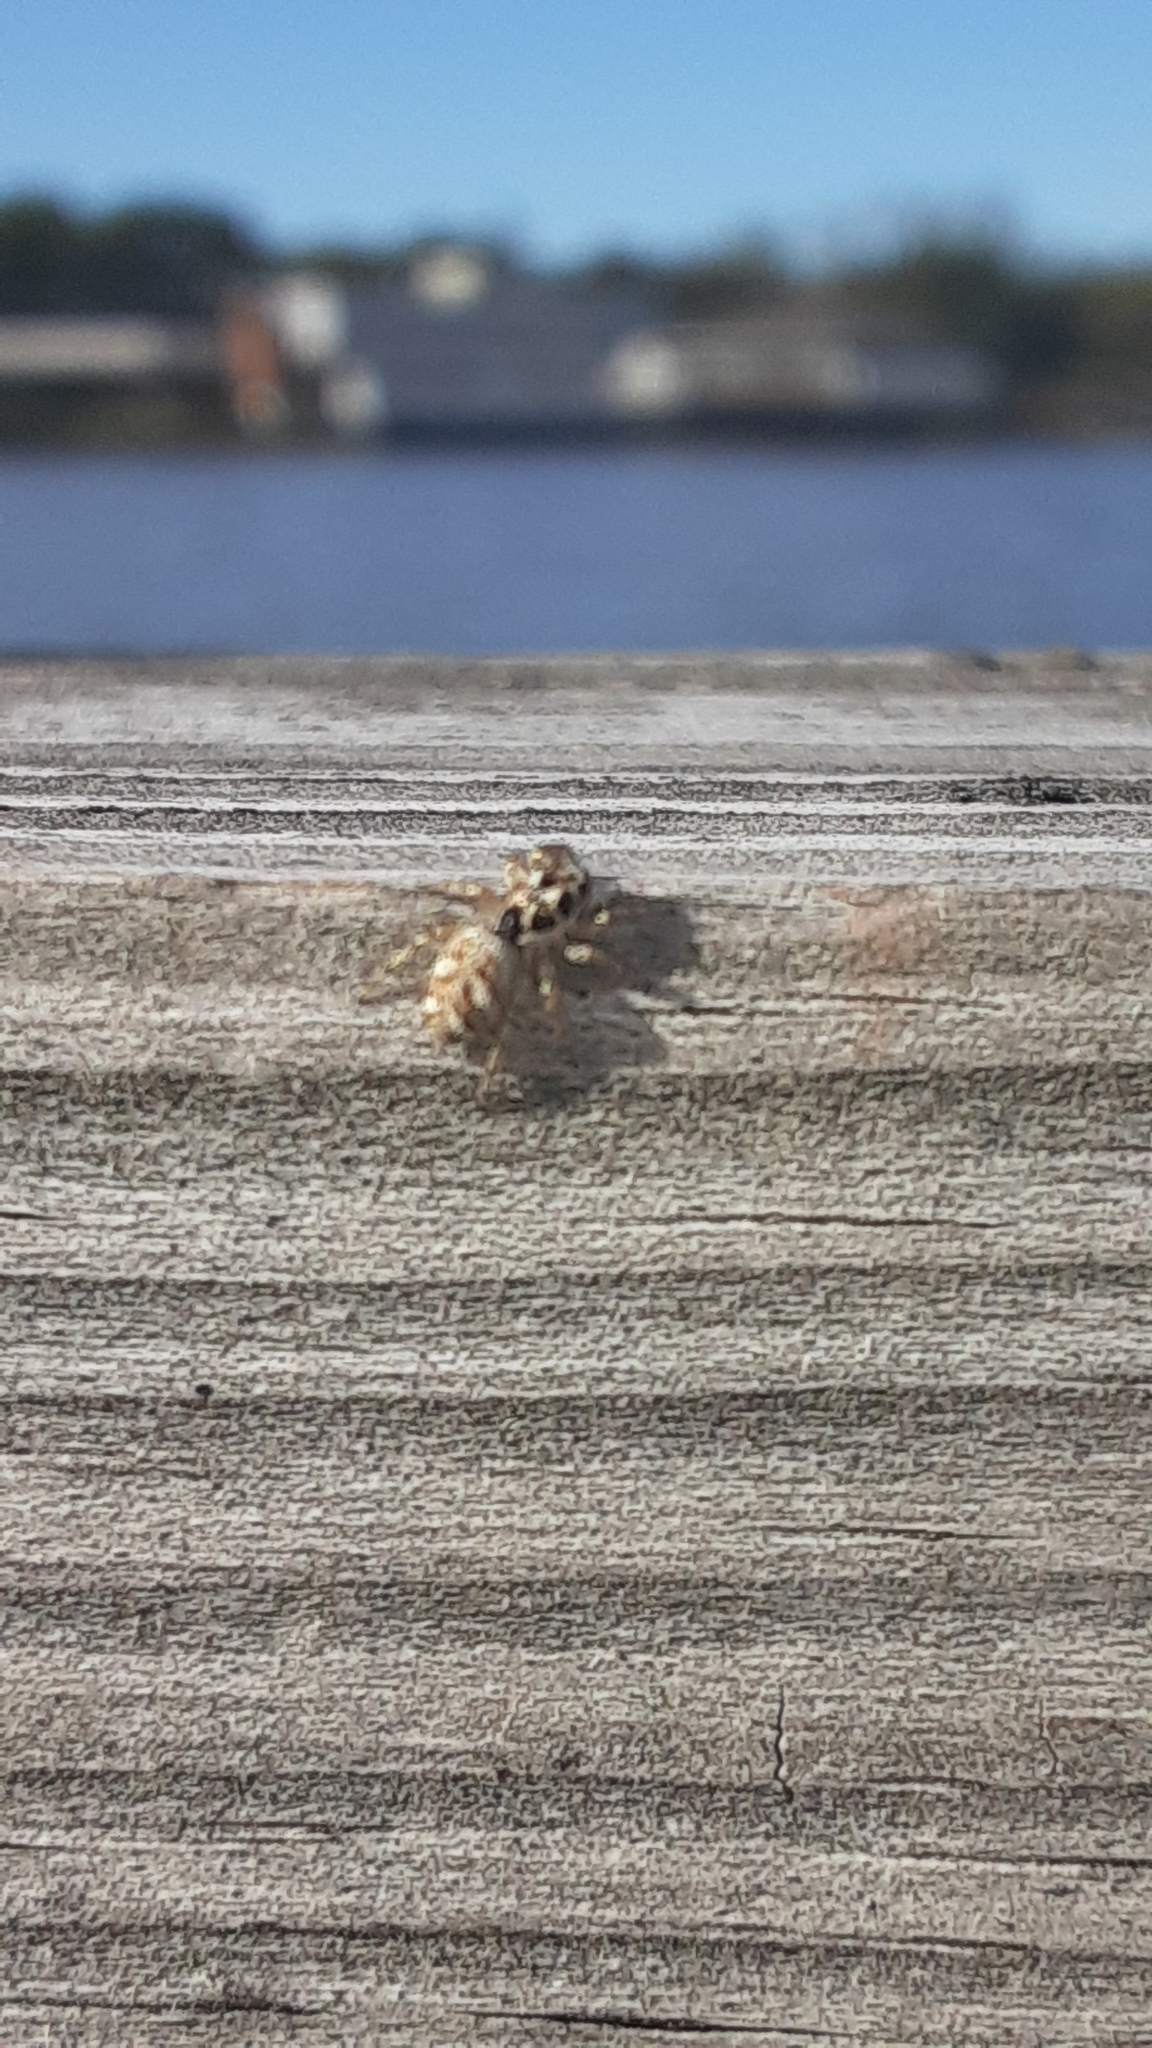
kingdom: Animalia
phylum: Arthropoda
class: Arachnida
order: Araneae
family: Salticidae
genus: Salticus
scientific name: Salticus scenicus
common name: Zebra jumper
